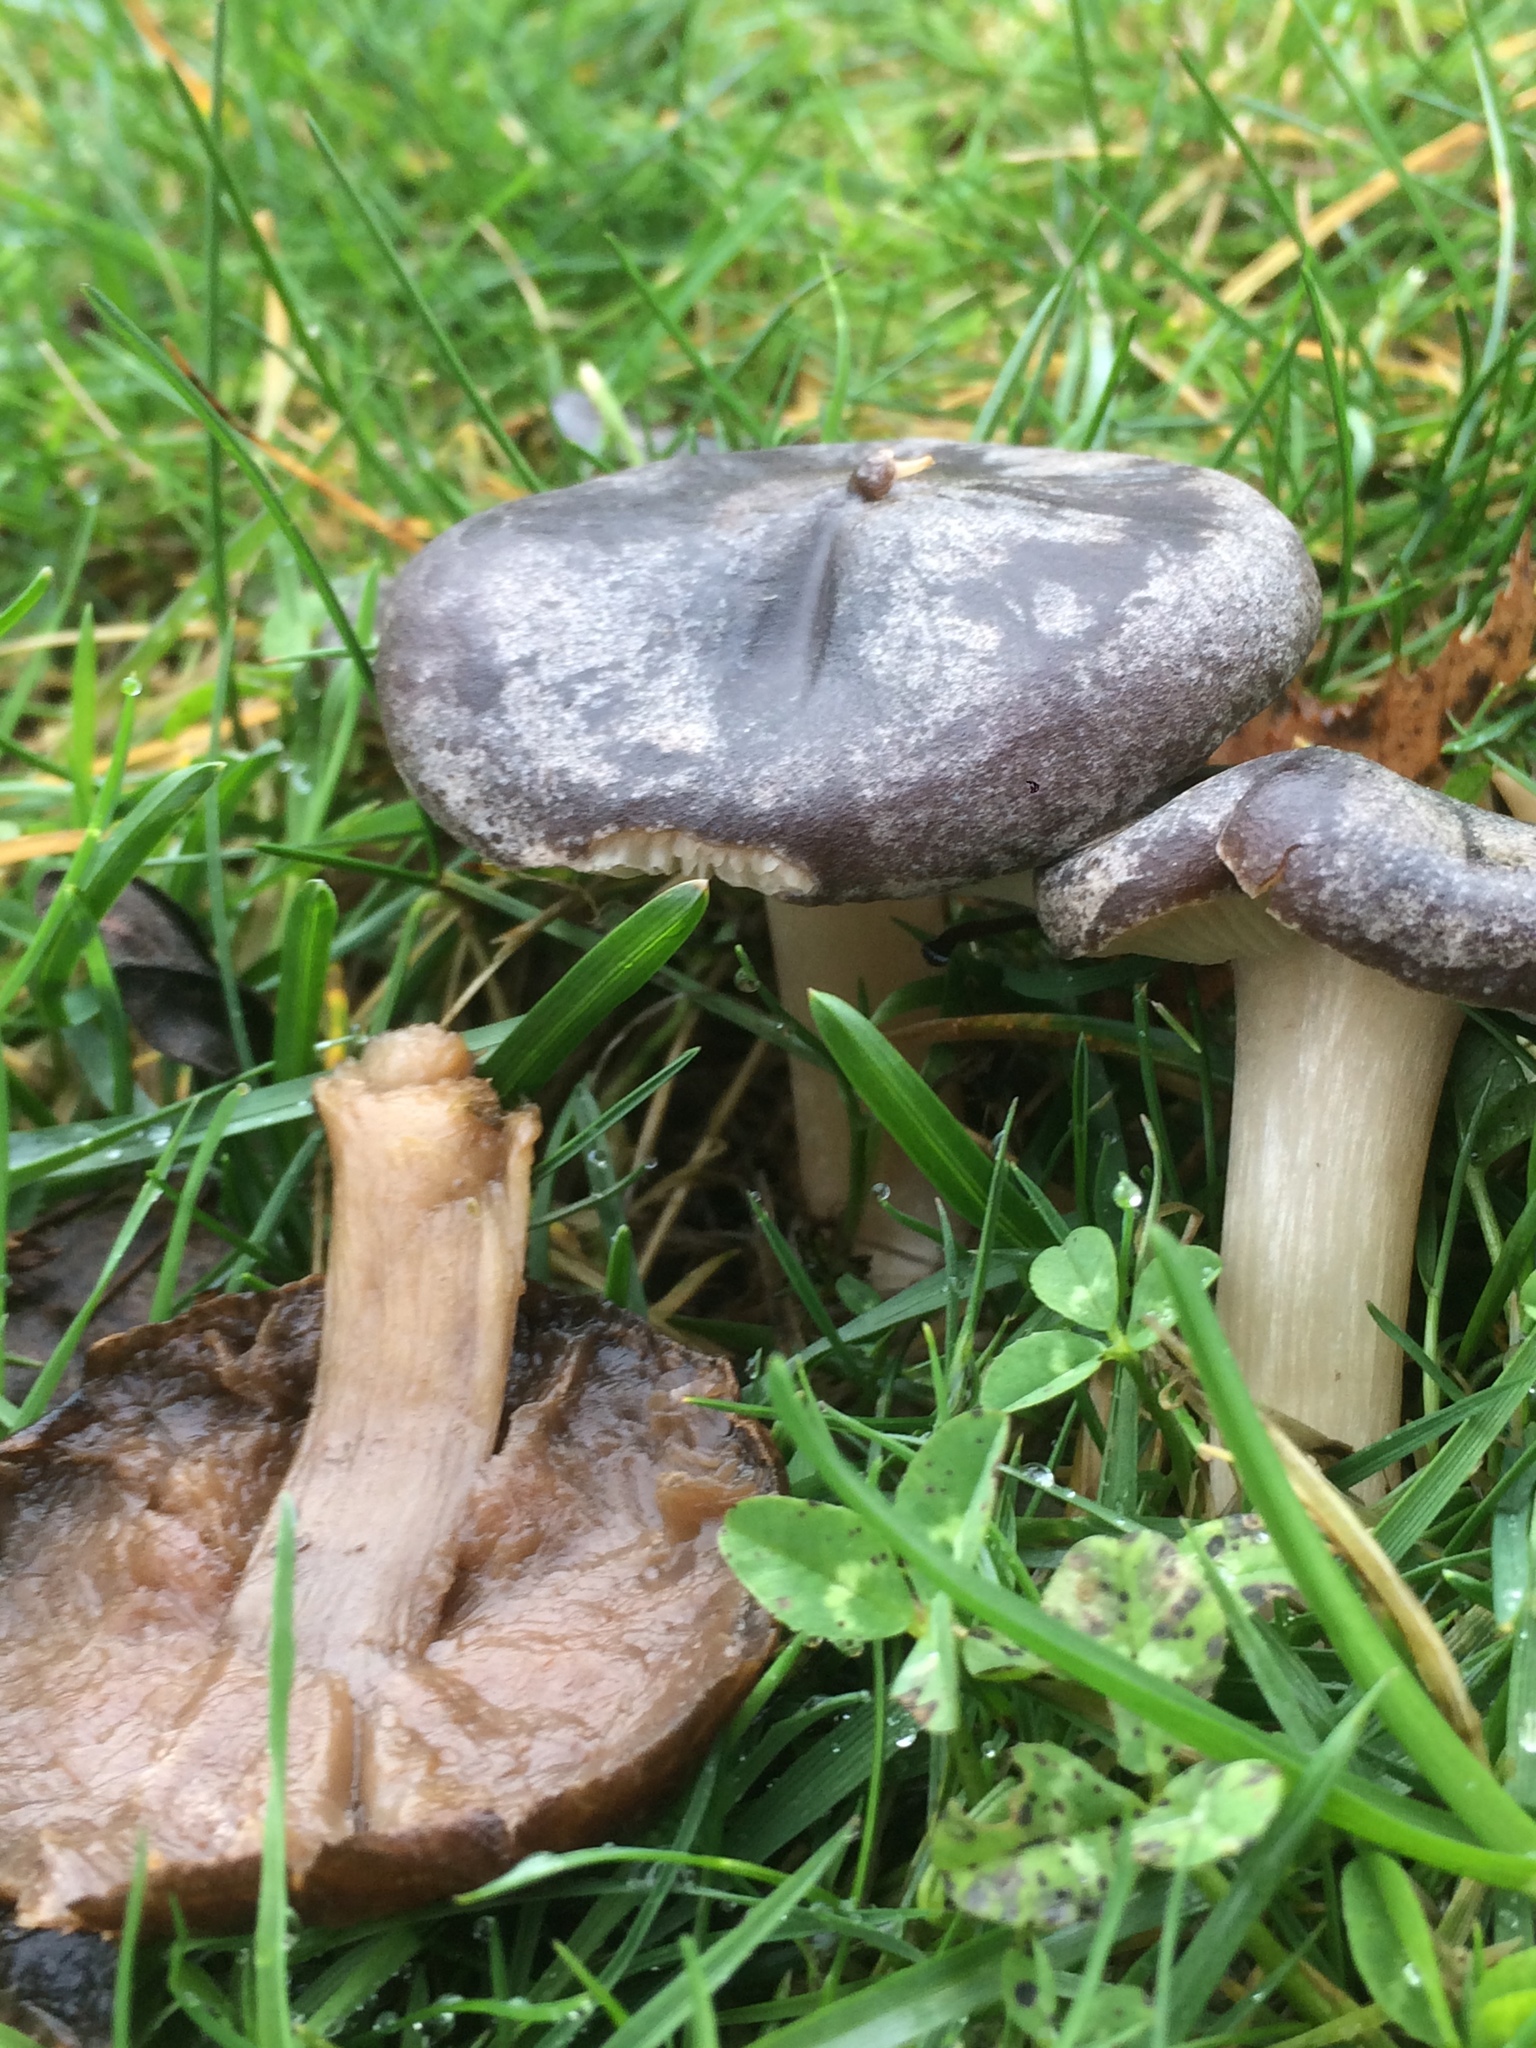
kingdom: Fungi
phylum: Basidiomycota
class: Agaricomycetes
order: Agaricales
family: Tricholomataceae
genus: Tricholoma
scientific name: Tricholoma terreum
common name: Grey knight
